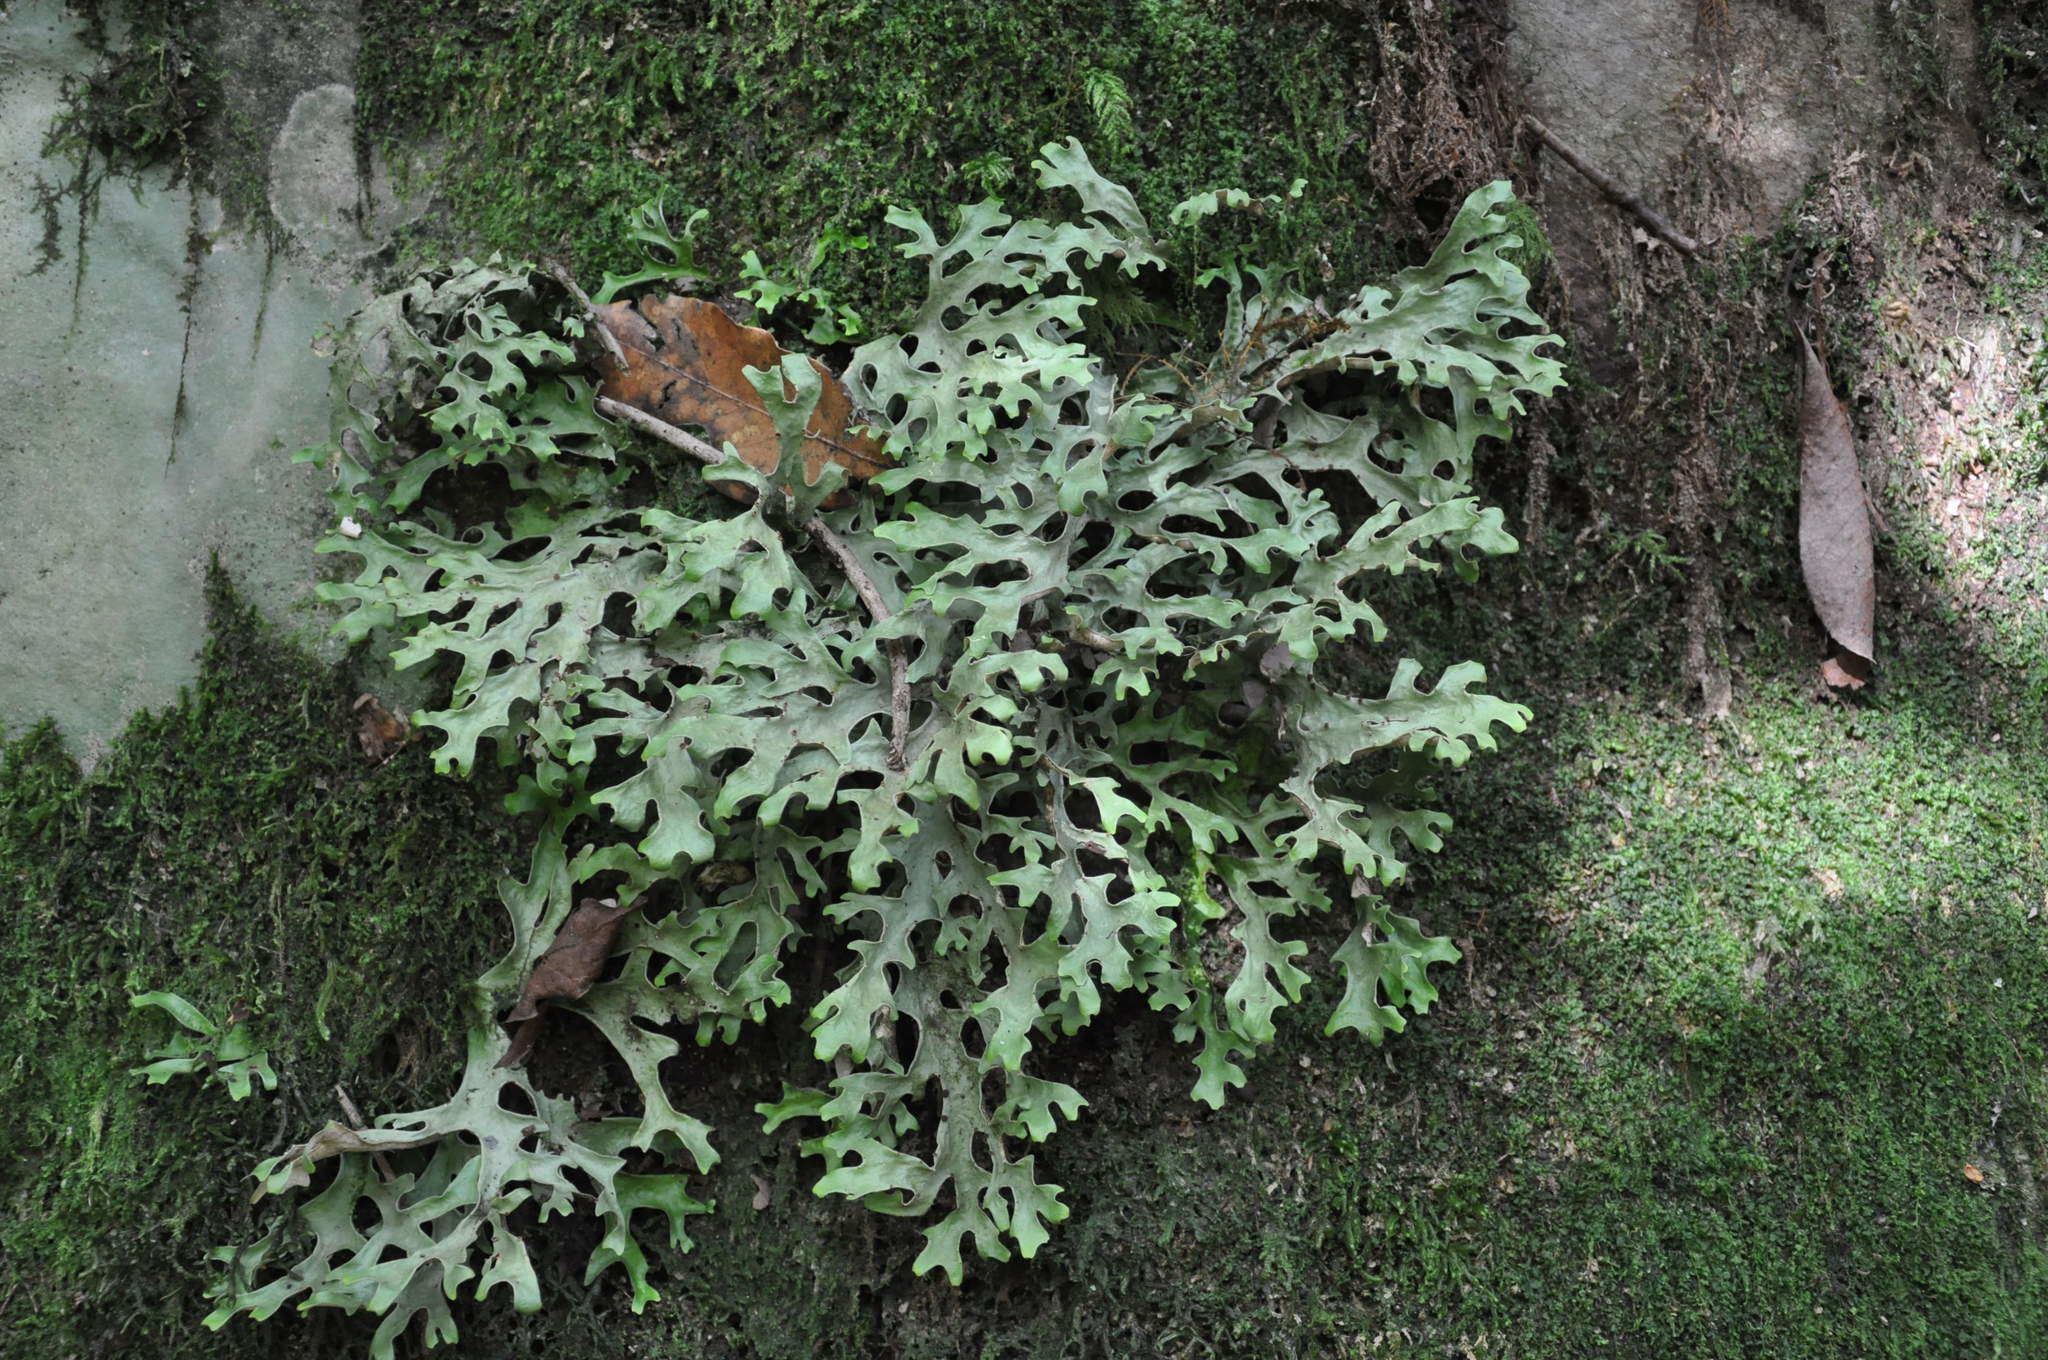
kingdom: Fungi
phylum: Ascomycota
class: Lecanoromycetes
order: Peltigerales
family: Lobariaceae
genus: Sticta
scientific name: Sticta canariensis
